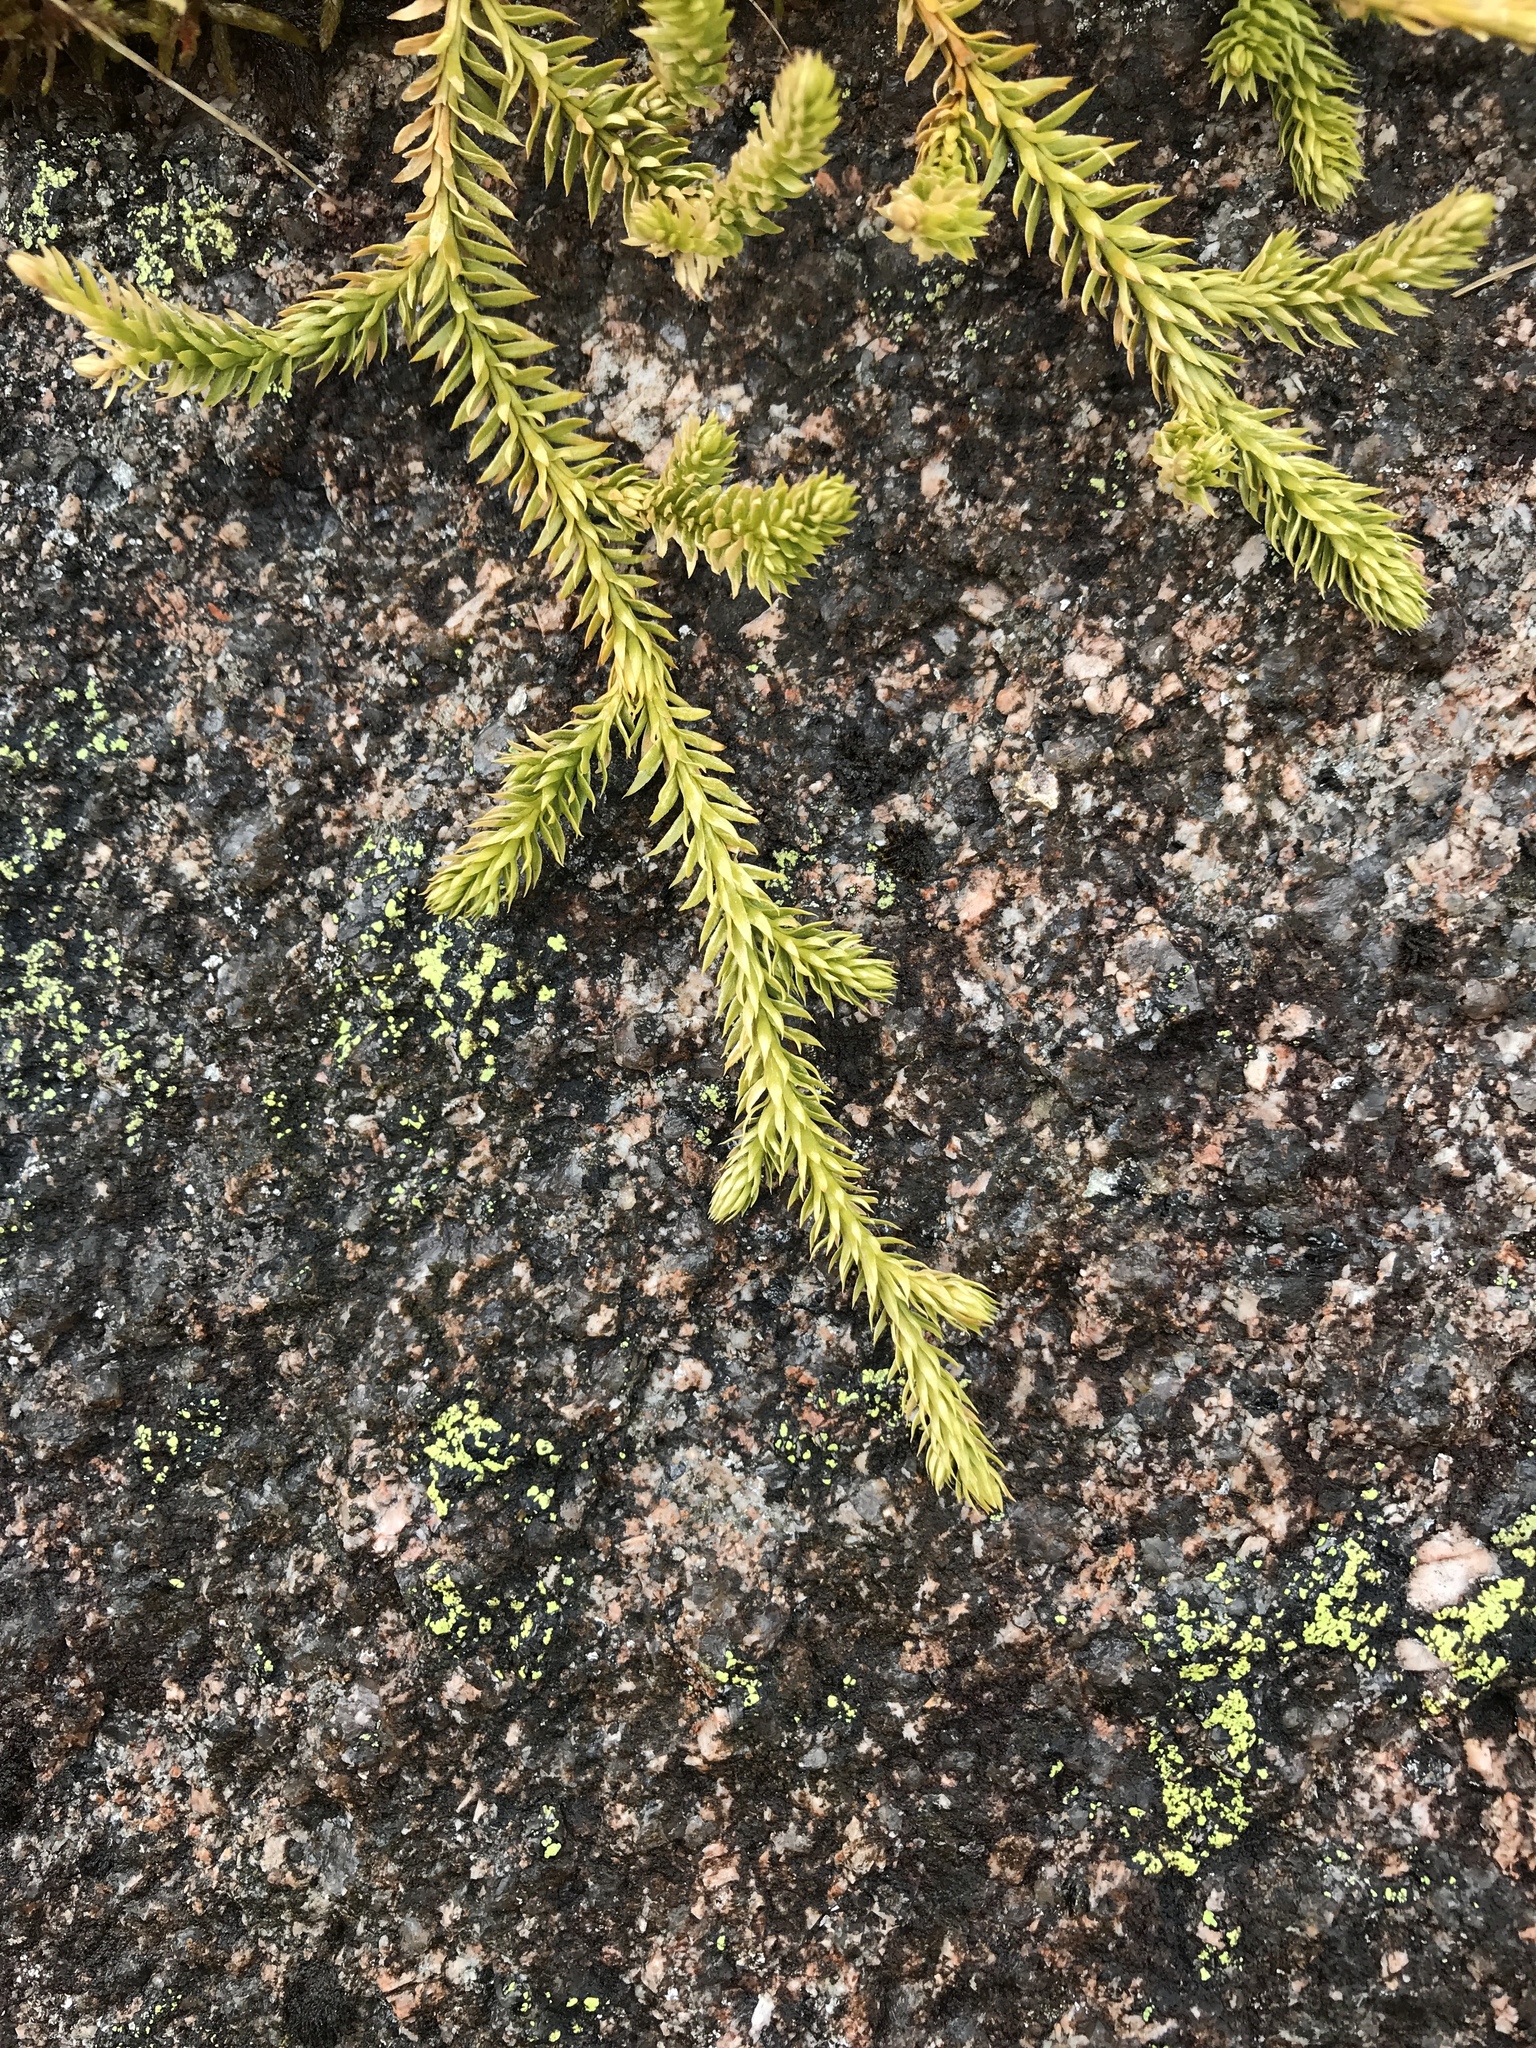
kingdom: Plantae
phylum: Tracheophyta
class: Lycopodiopsida
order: Lycopodiales
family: Lycopodiaceae
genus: Lycopodium
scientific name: Lycopodium clavatum
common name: Stag's-horn clubmoss
